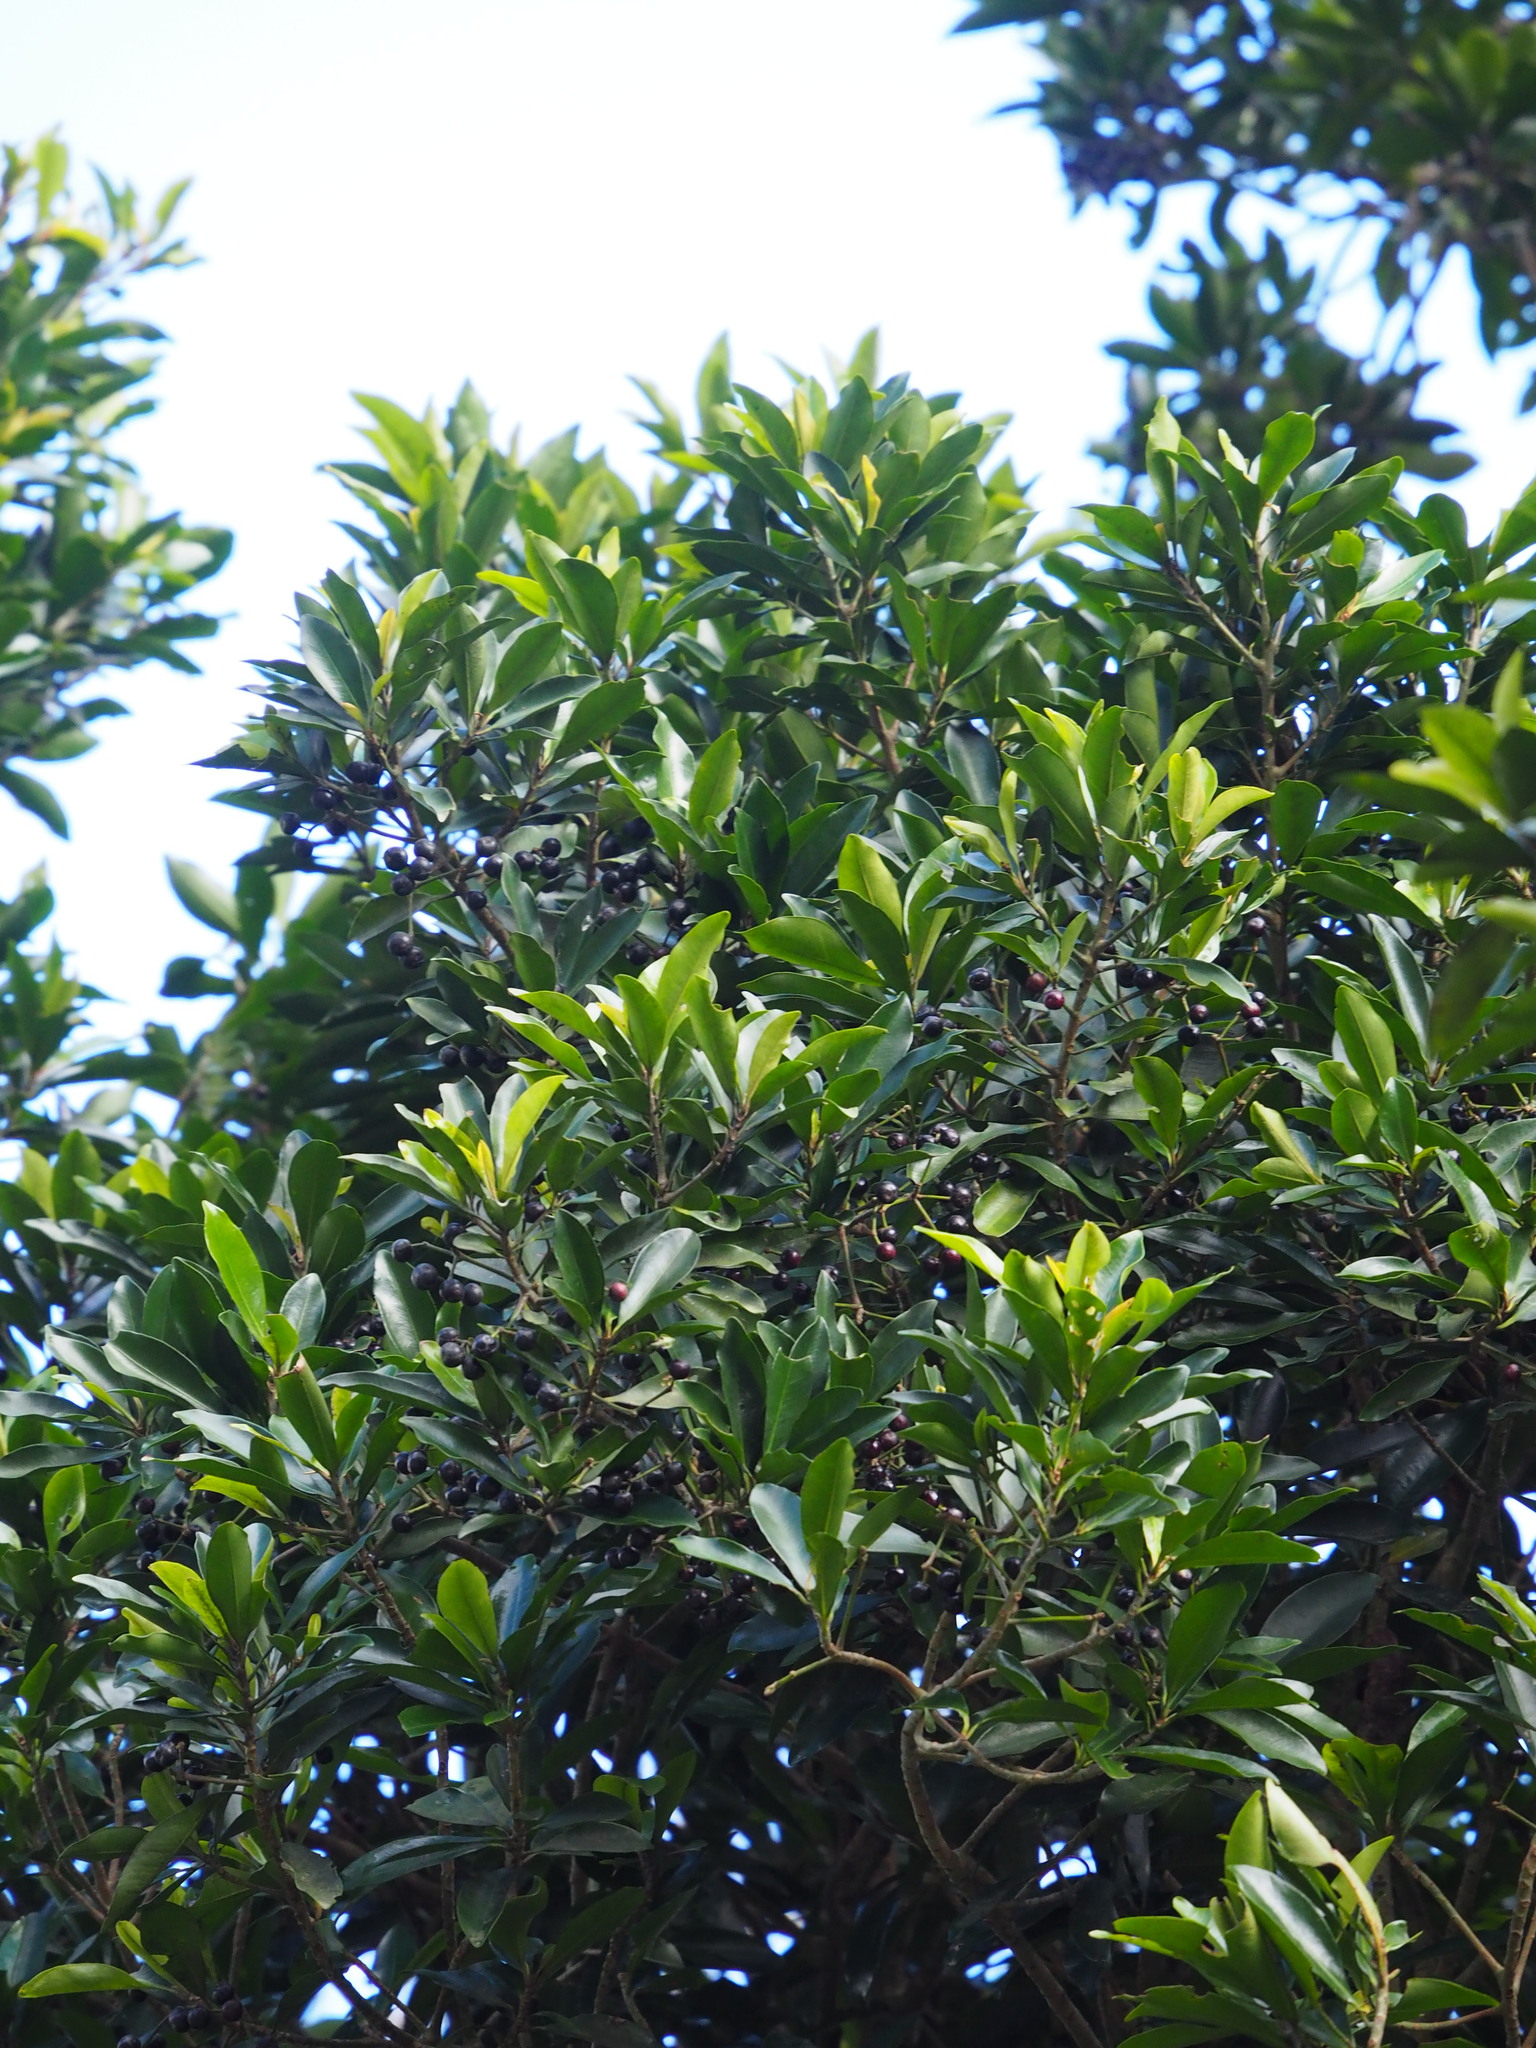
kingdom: Plantae
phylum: Tracheophyta
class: Magnoliopsida
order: Ericales
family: Primulaceae
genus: Ardisia
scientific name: Ardisia sieboldii
